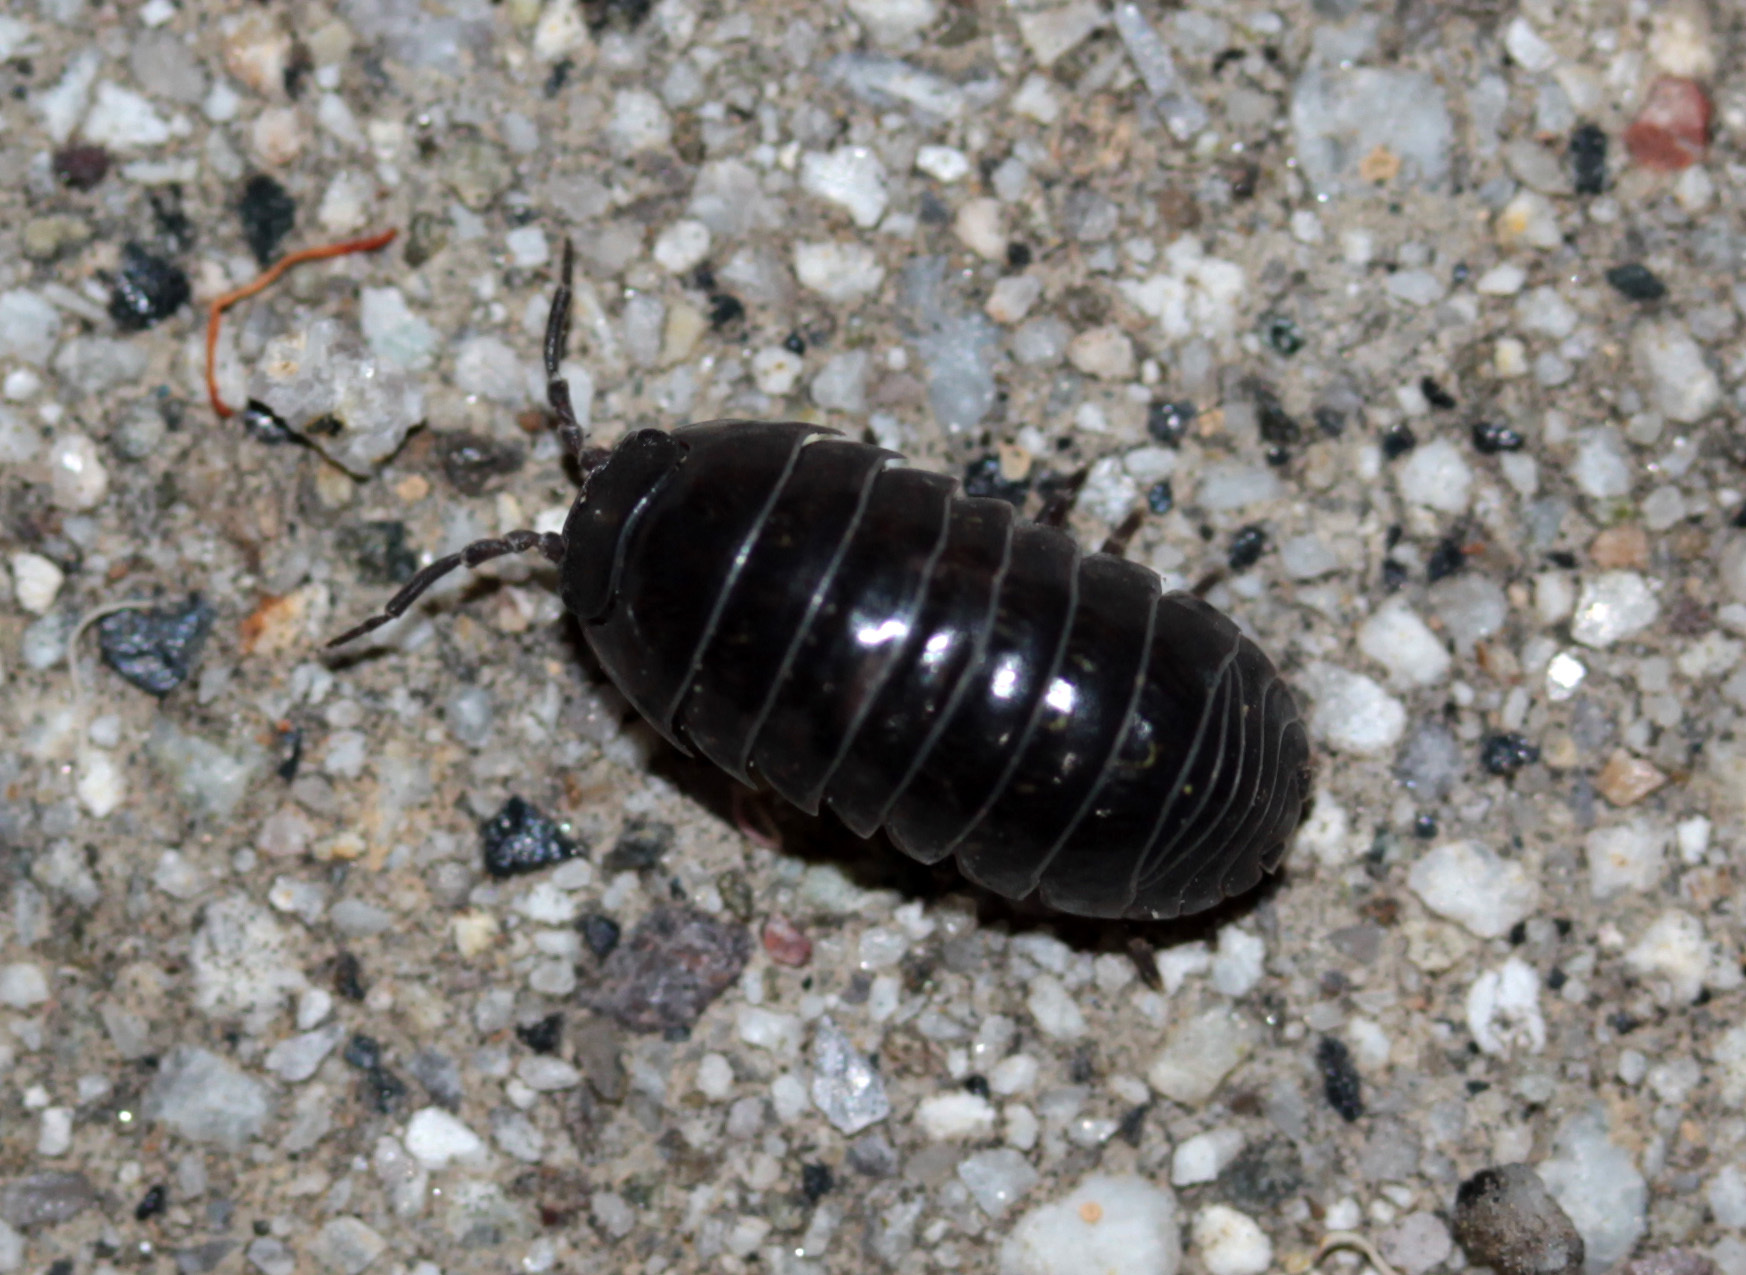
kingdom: Animalia
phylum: Arthropoda
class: Malacostraca
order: Isopoda
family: Armadillidiidae
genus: Armadillidium
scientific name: Armadillidium vulgare
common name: Common pill woodlouse
